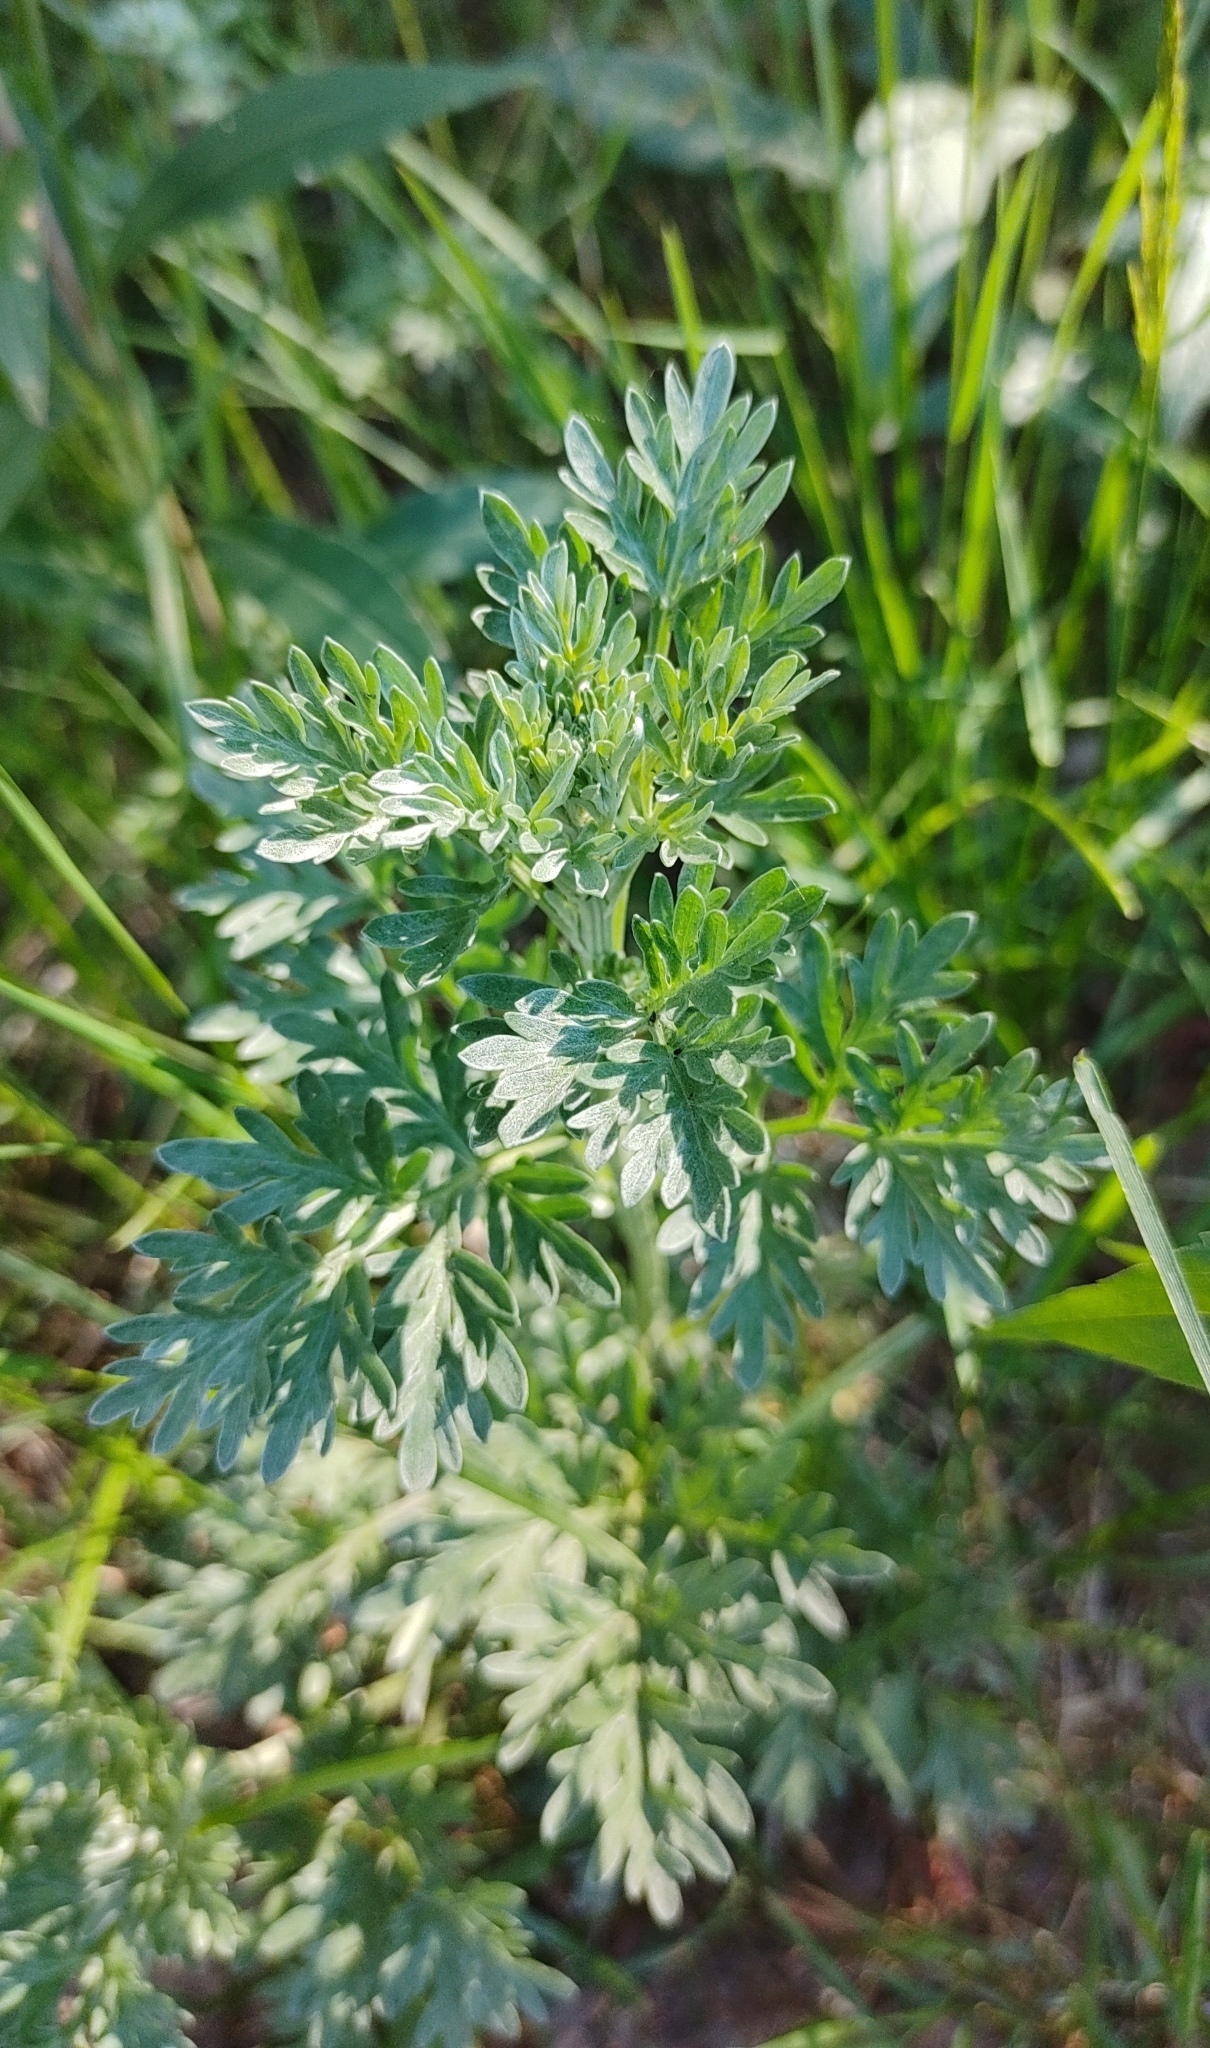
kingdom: Plantae
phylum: Tracheophyta
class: Magnoliopsida
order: Asterales
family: Asteraceae
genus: Artemisia
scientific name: Artemisia absinthium
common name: Wormwood
